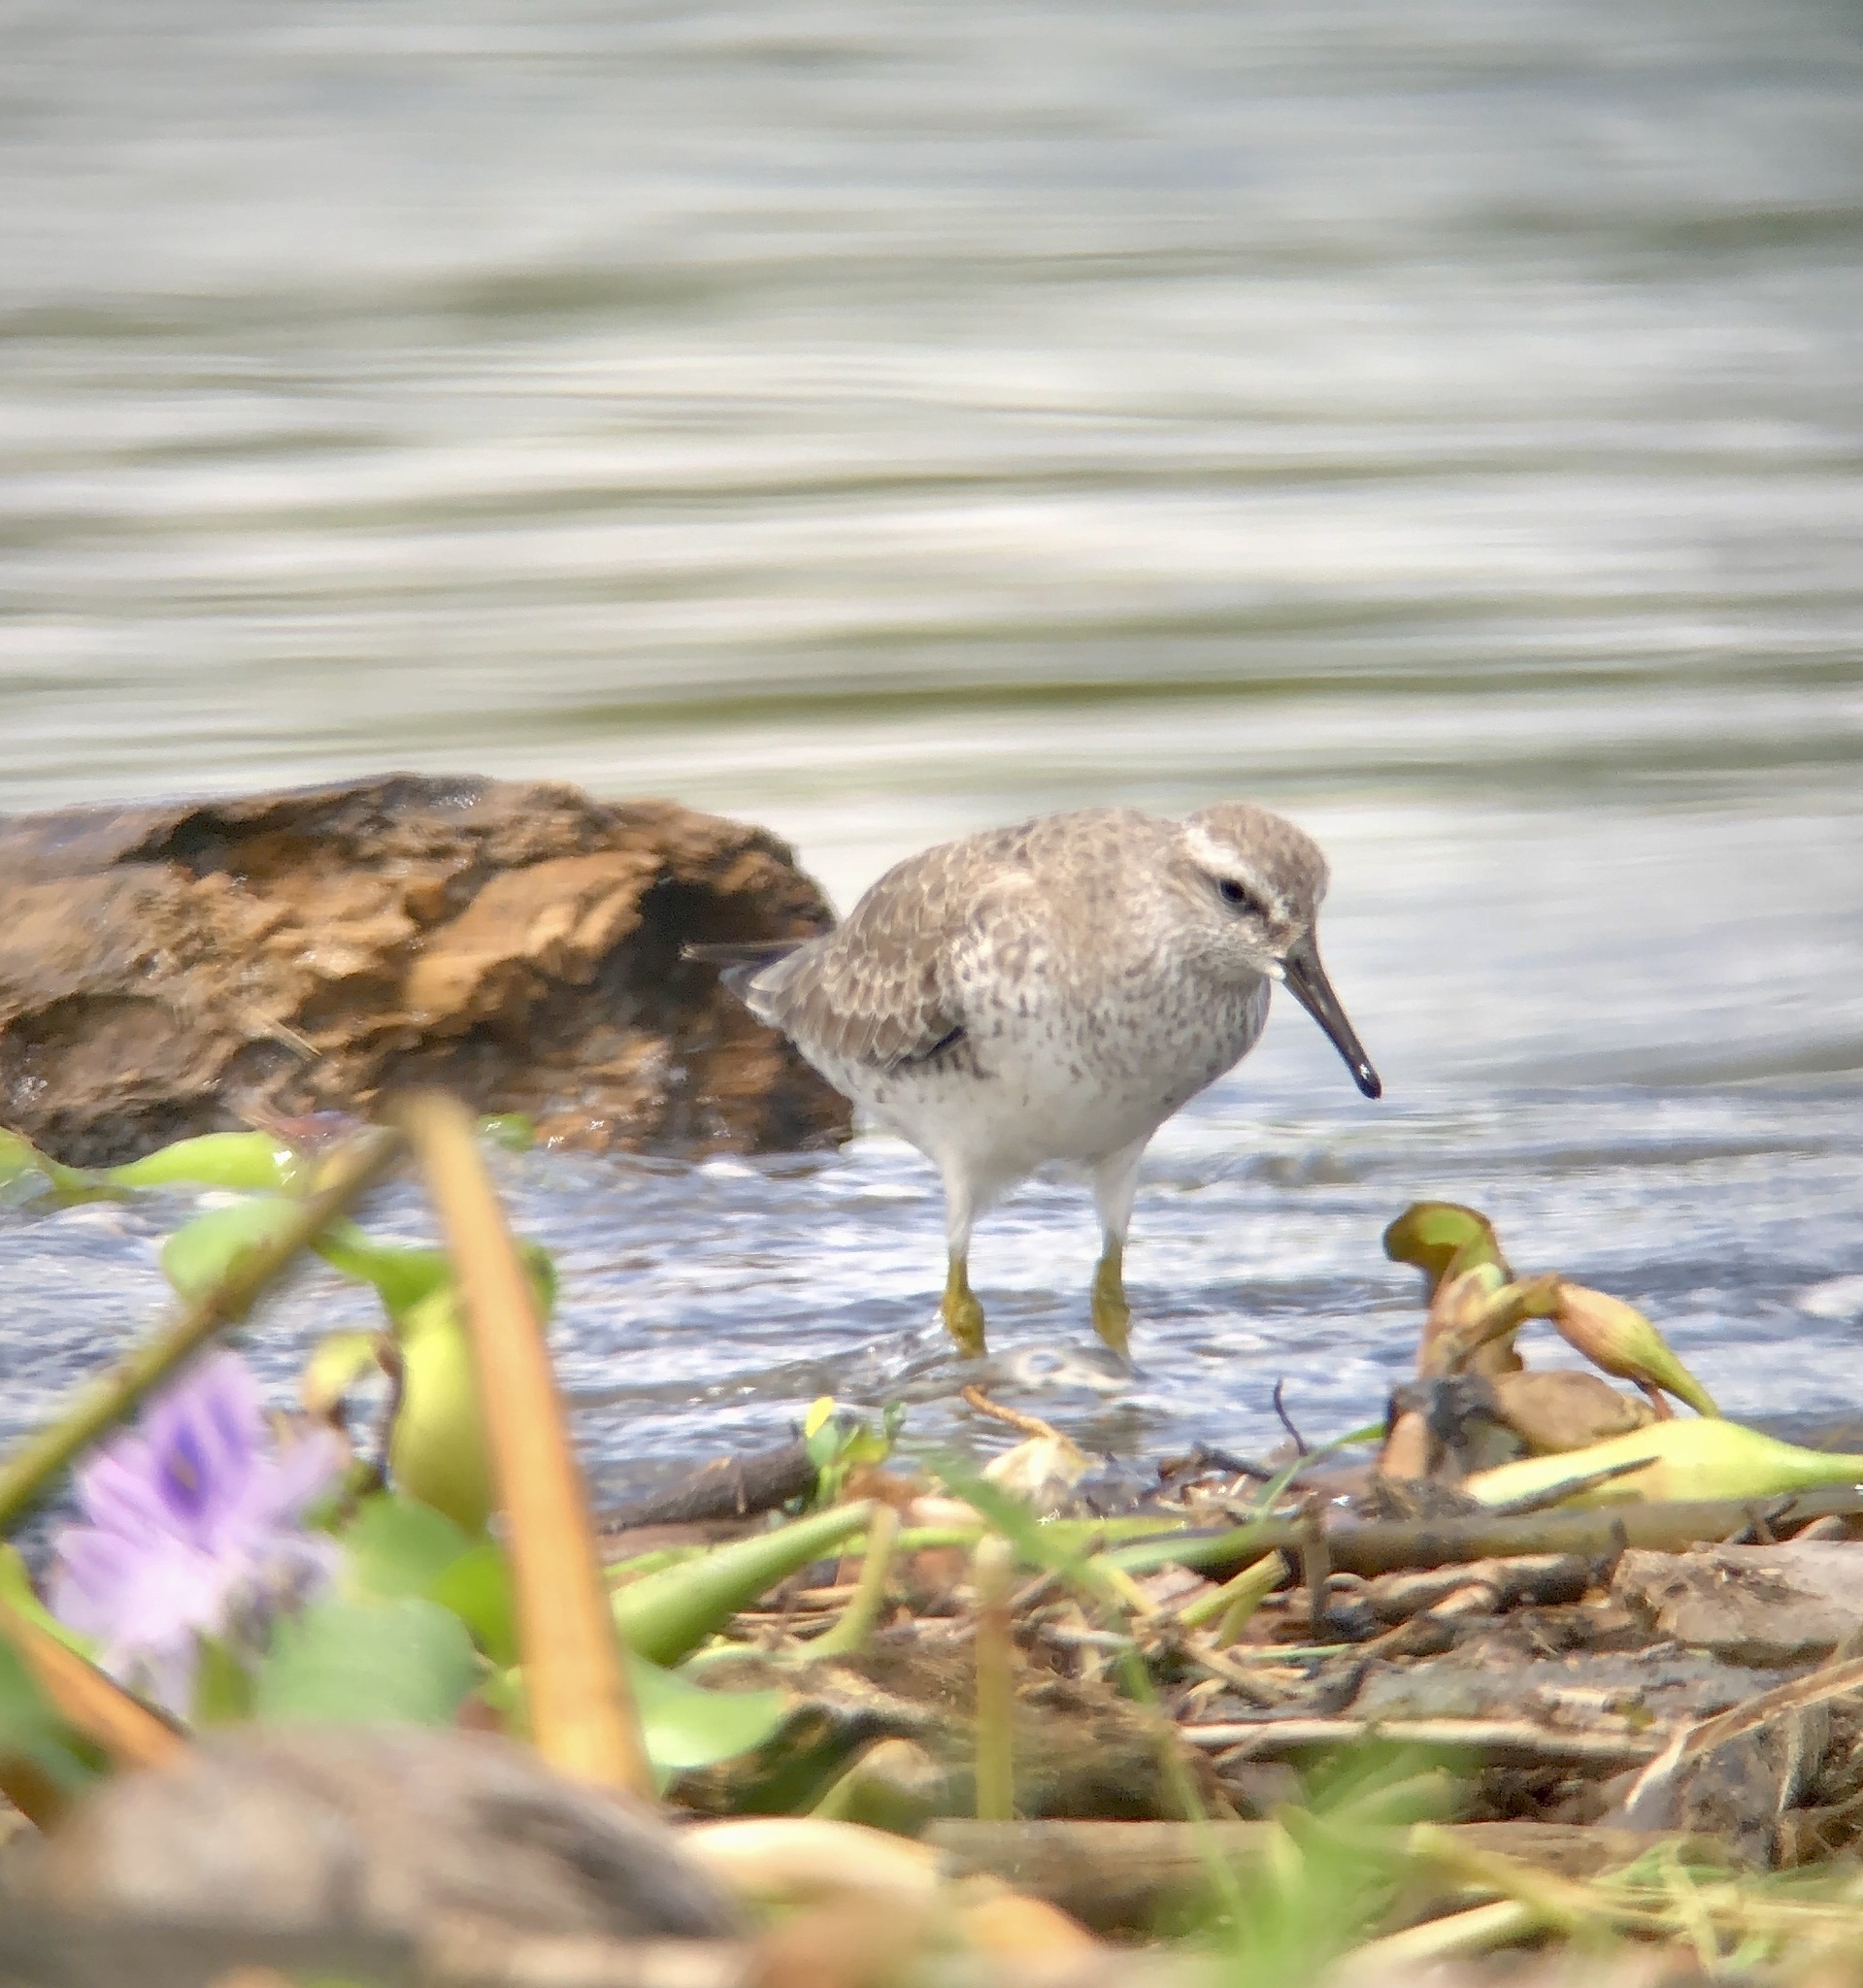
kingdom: Animalia
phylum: Chordata
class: Aves
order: Charadriiformes
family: Scolopacidae
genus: Calidris
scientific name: Calidris canutus
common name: Red knot
